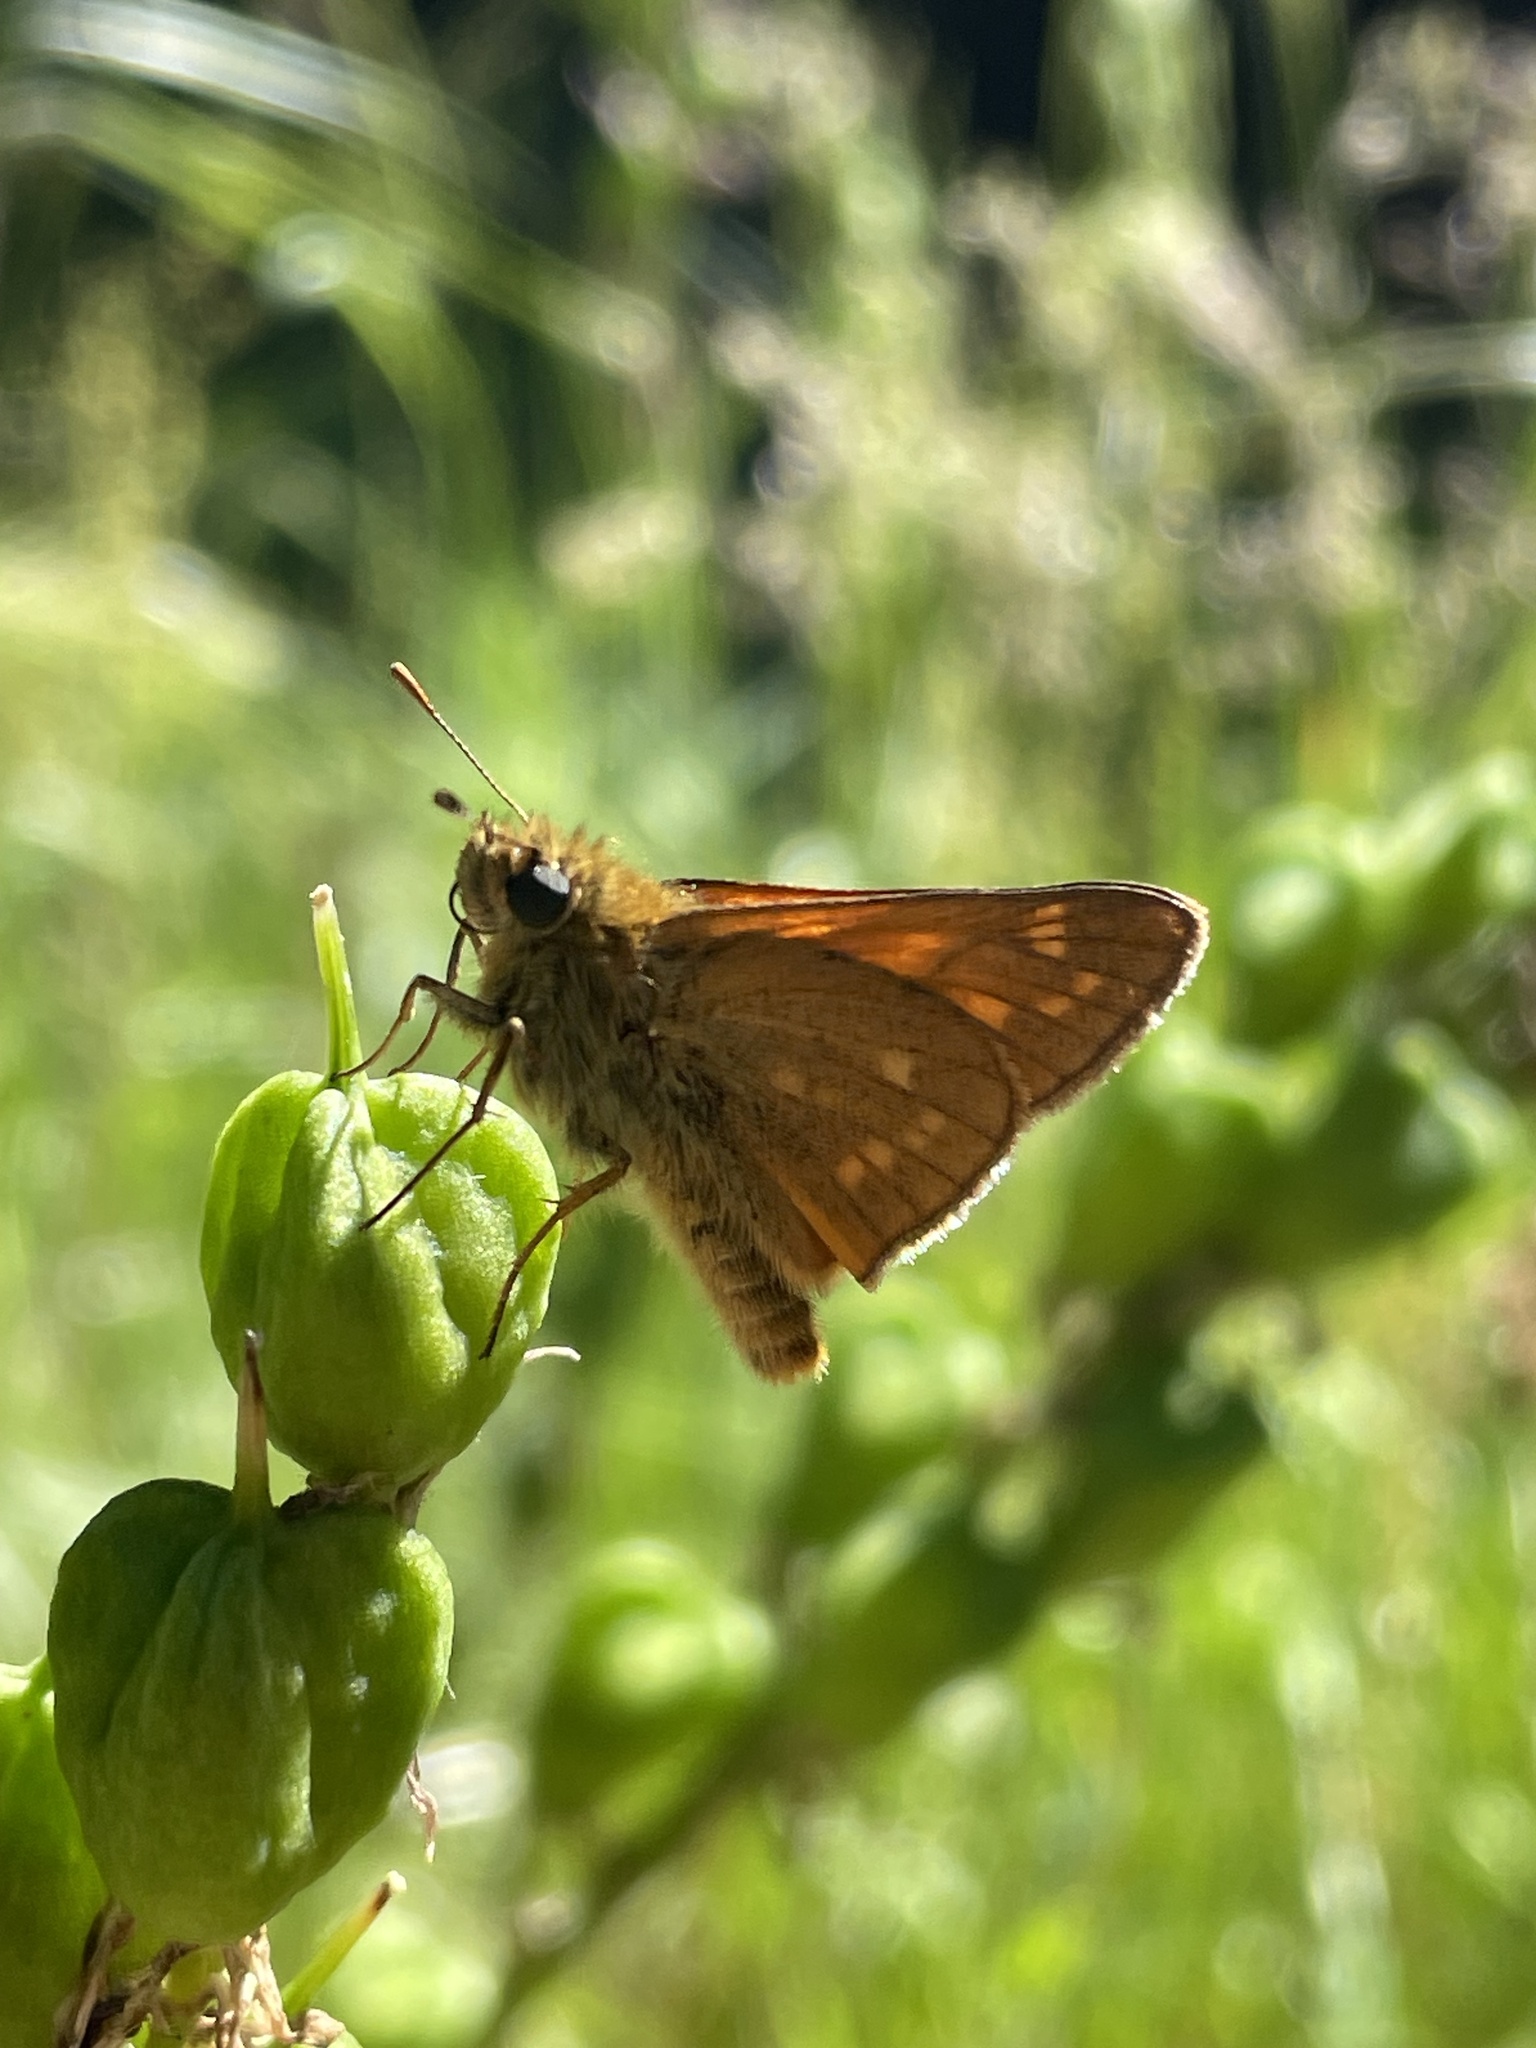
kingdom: Animalia
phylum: Arthropoda
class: Insecta
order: Lepidoptera
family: Hesperiidae
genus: Ochlodes
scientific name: Ochlodes venata
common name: Large skipper
